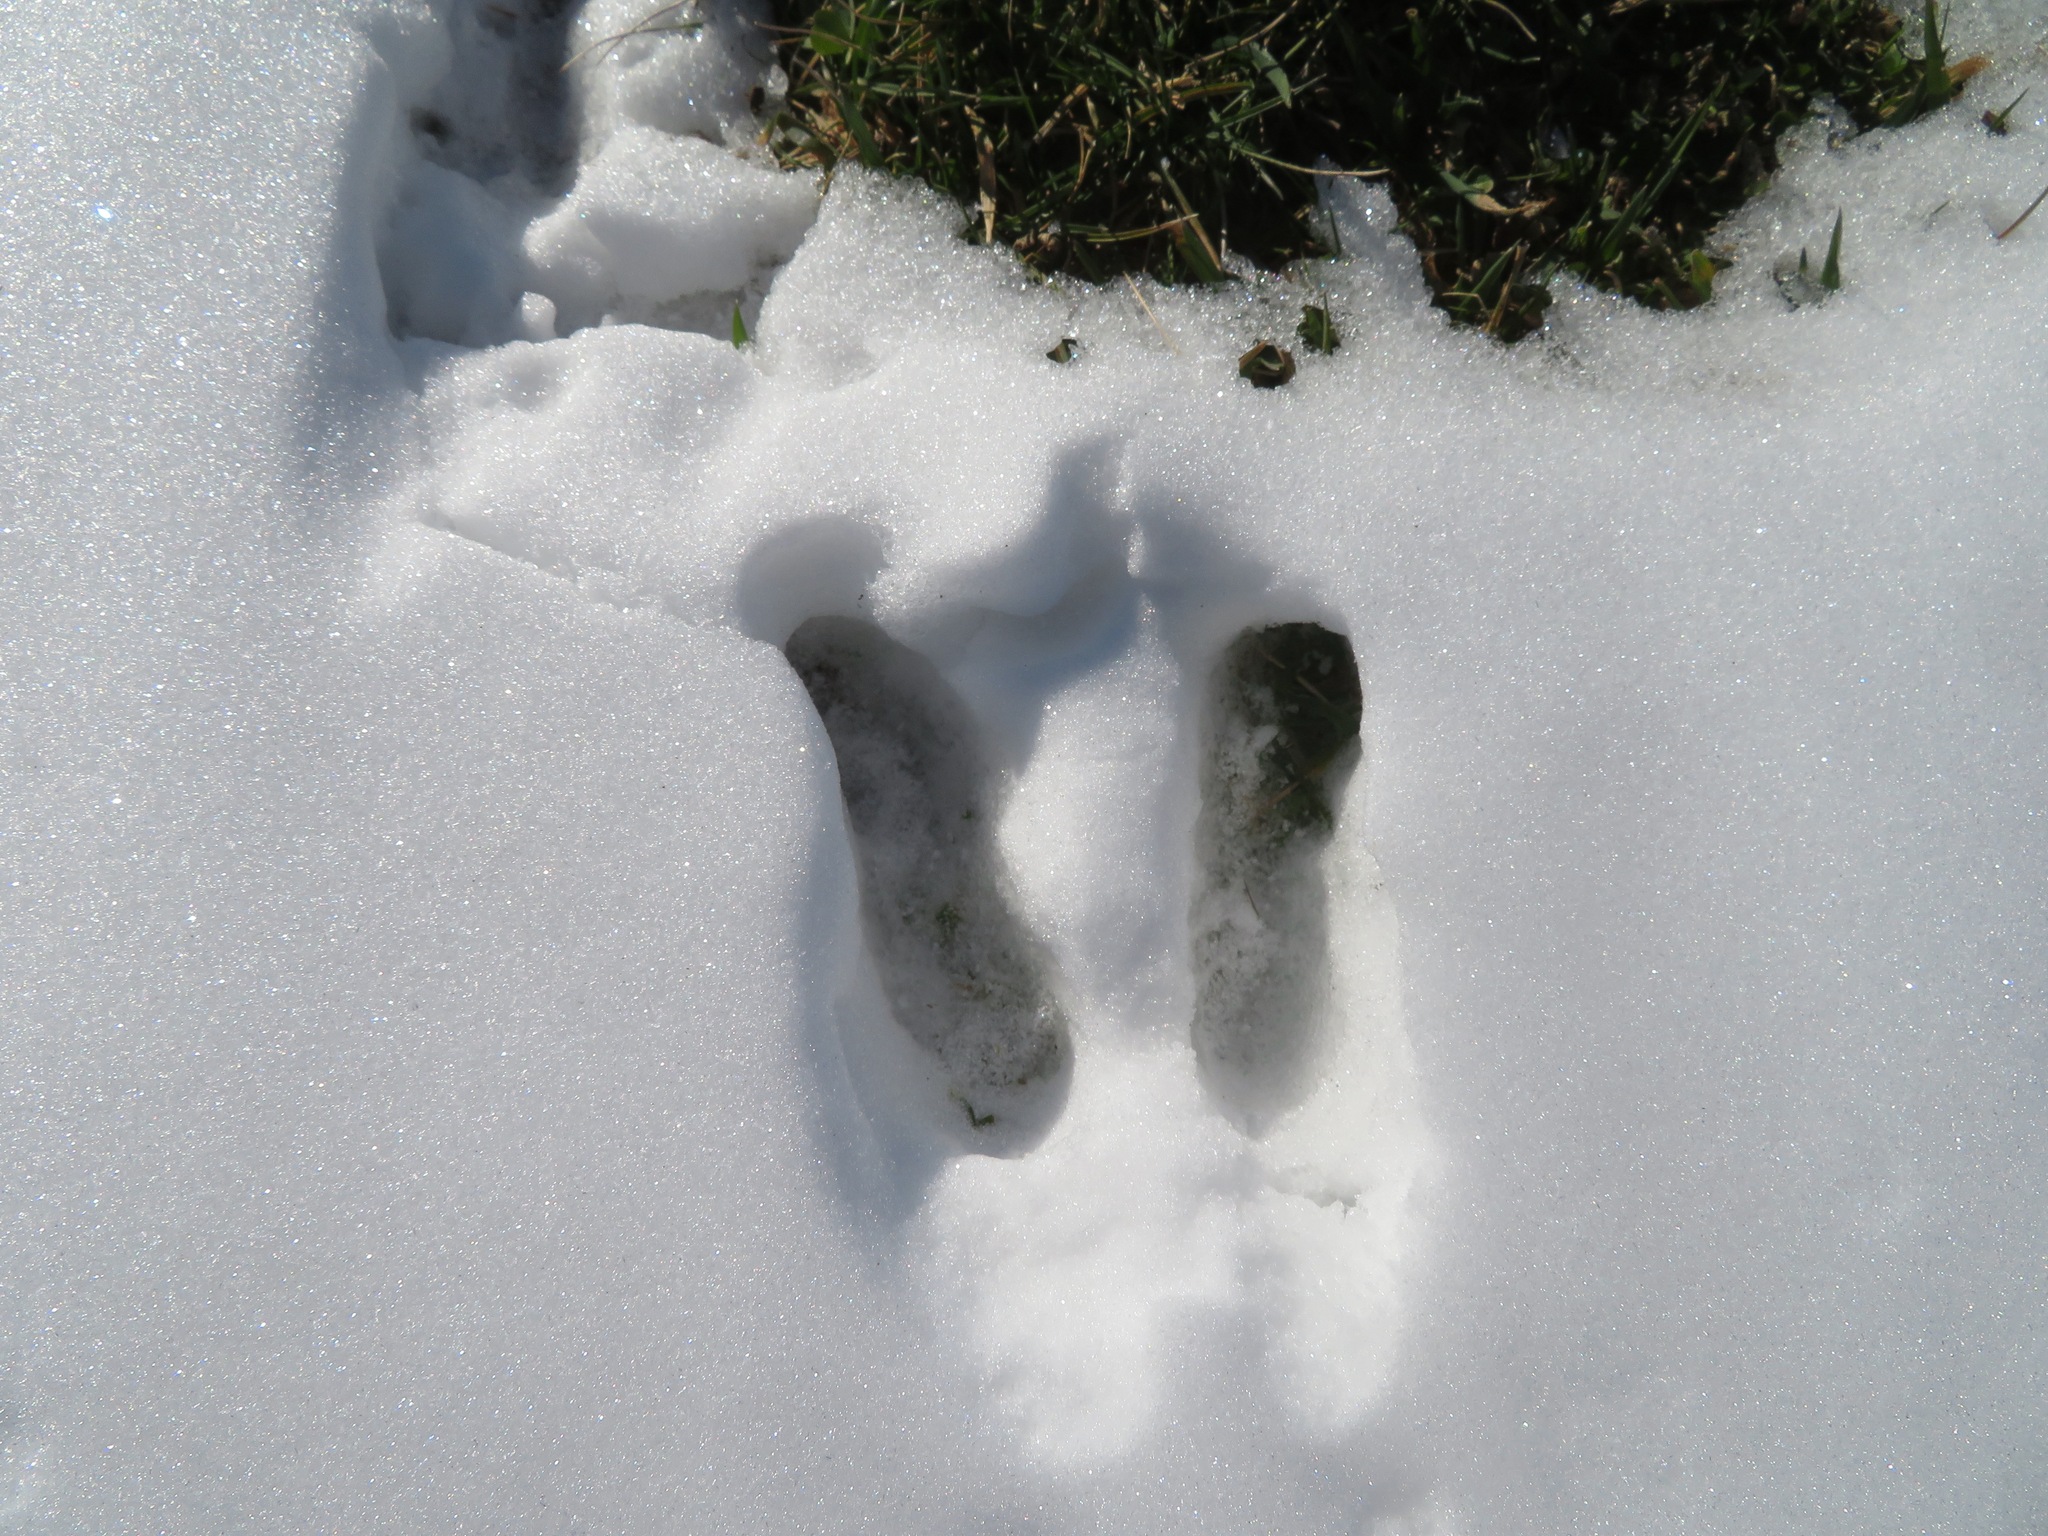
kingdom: Animalia
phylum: Chordata
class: Mammalia
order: Artiodactyla
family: Bovidae
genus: Rupicapra
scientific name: Rupicapra rupicapra
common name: Chamois
